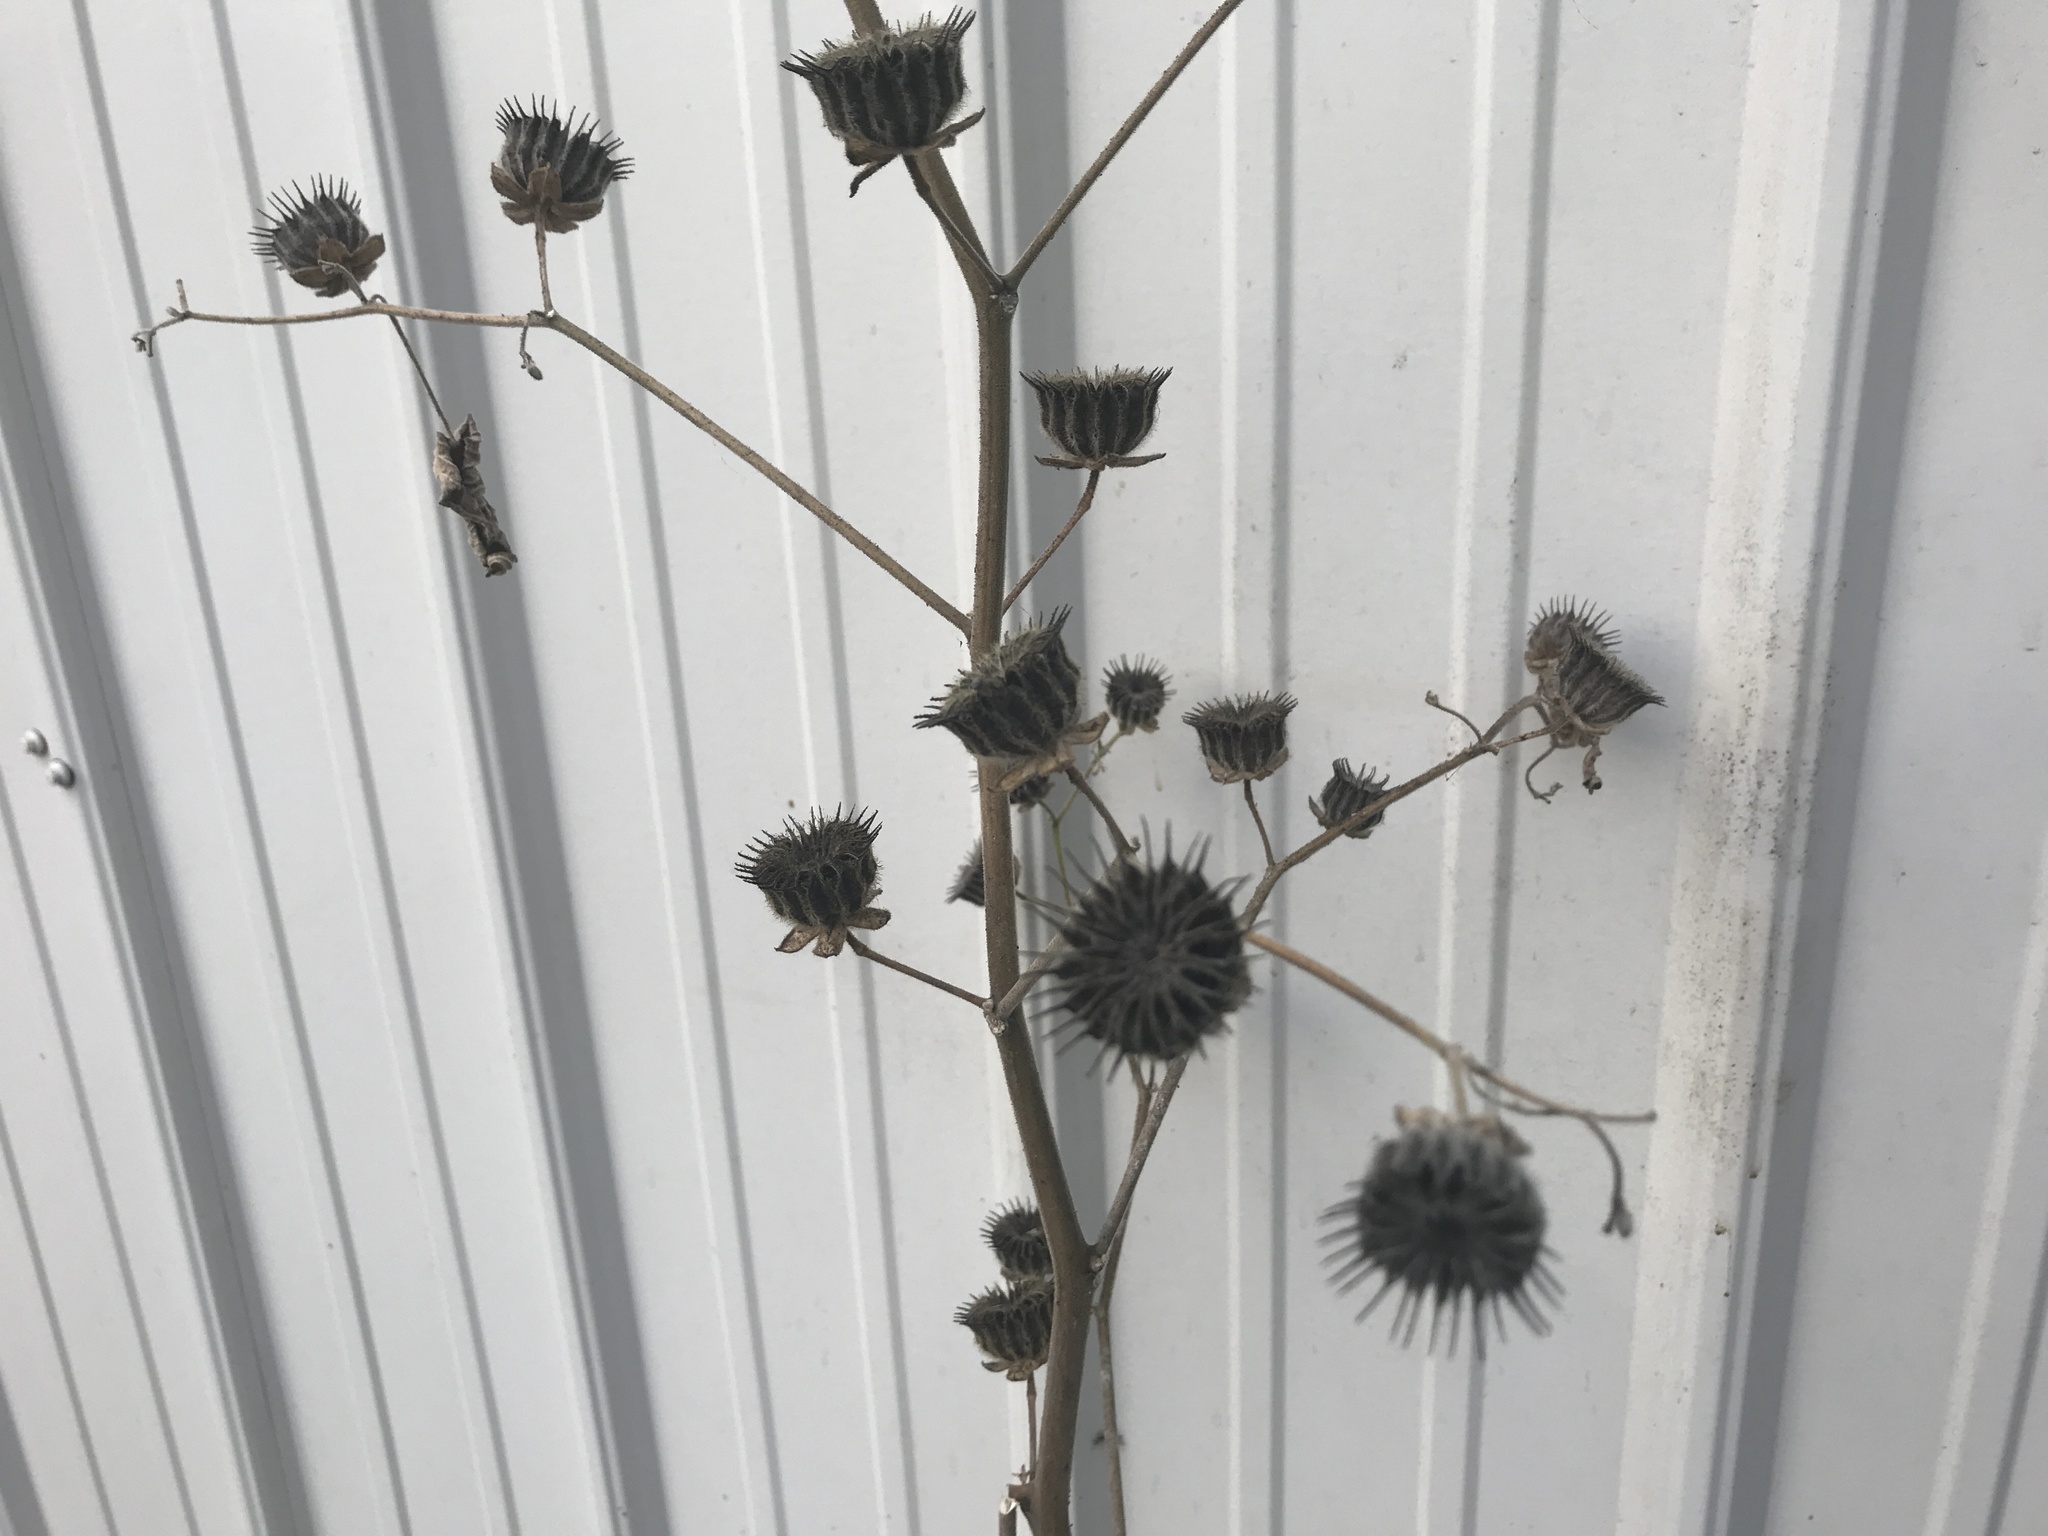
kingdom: Plantae
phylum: Tracheophyta
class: Magnoliopsida
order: Malvales
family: Malvaceae
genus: Abutilon
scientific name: Abutilon theophrasti
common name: Velvetleaf
